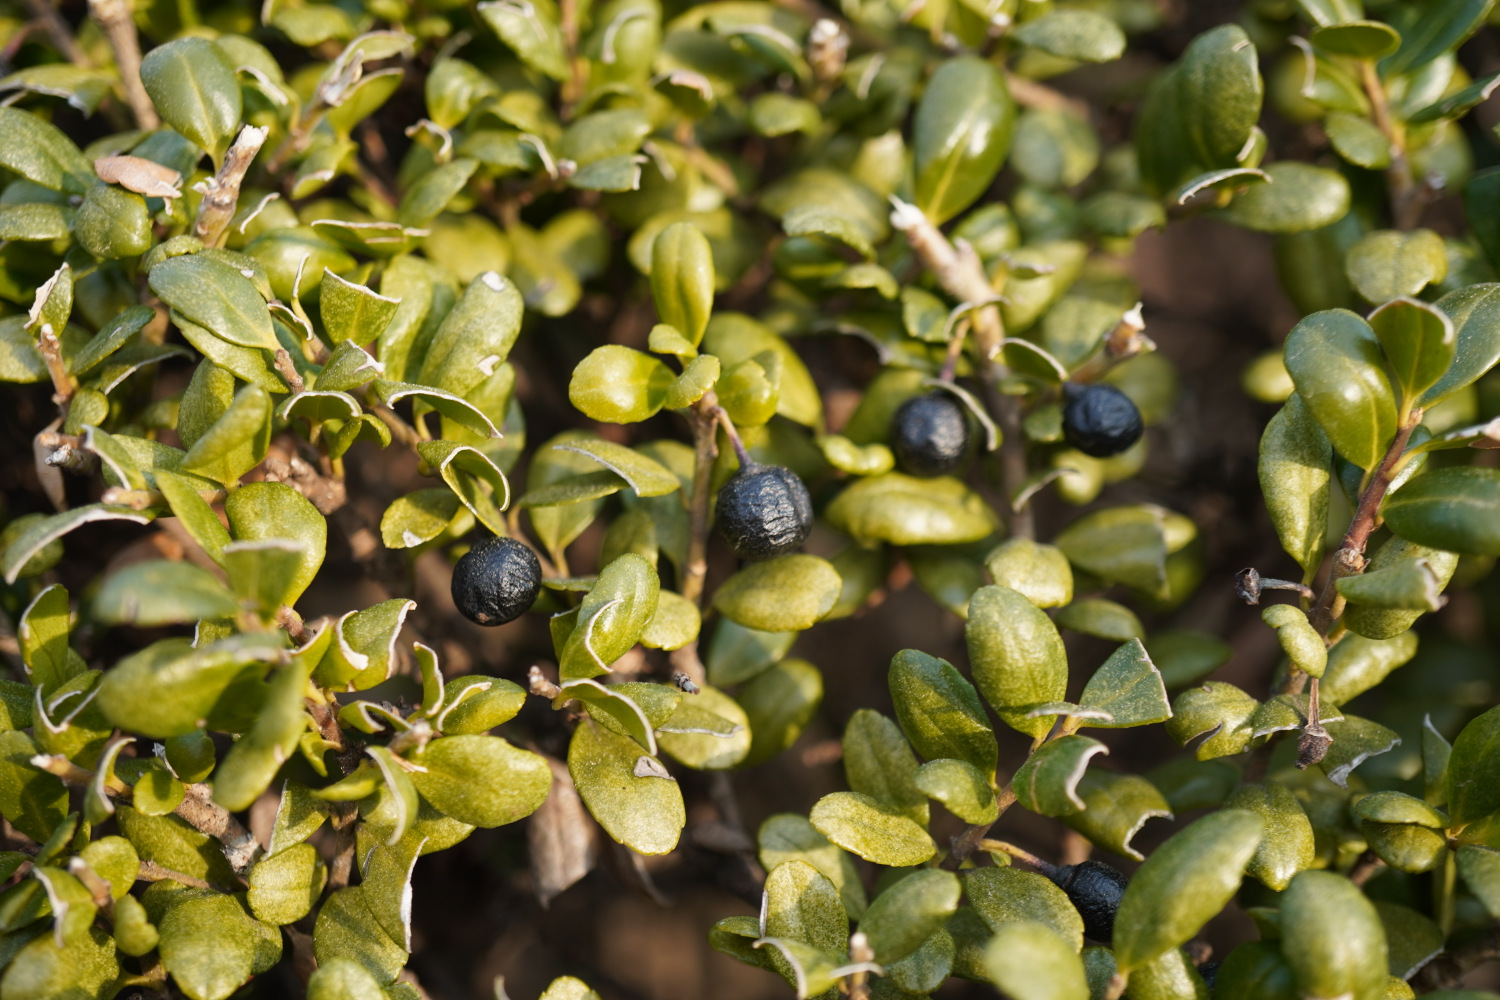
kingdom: Plantae
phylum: Tracheophyta
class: Magnoliopsida
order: Aquifoliales
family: Aquifoliaceae
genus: Ilex
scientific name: Ilex crenata
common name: Japanese holly
